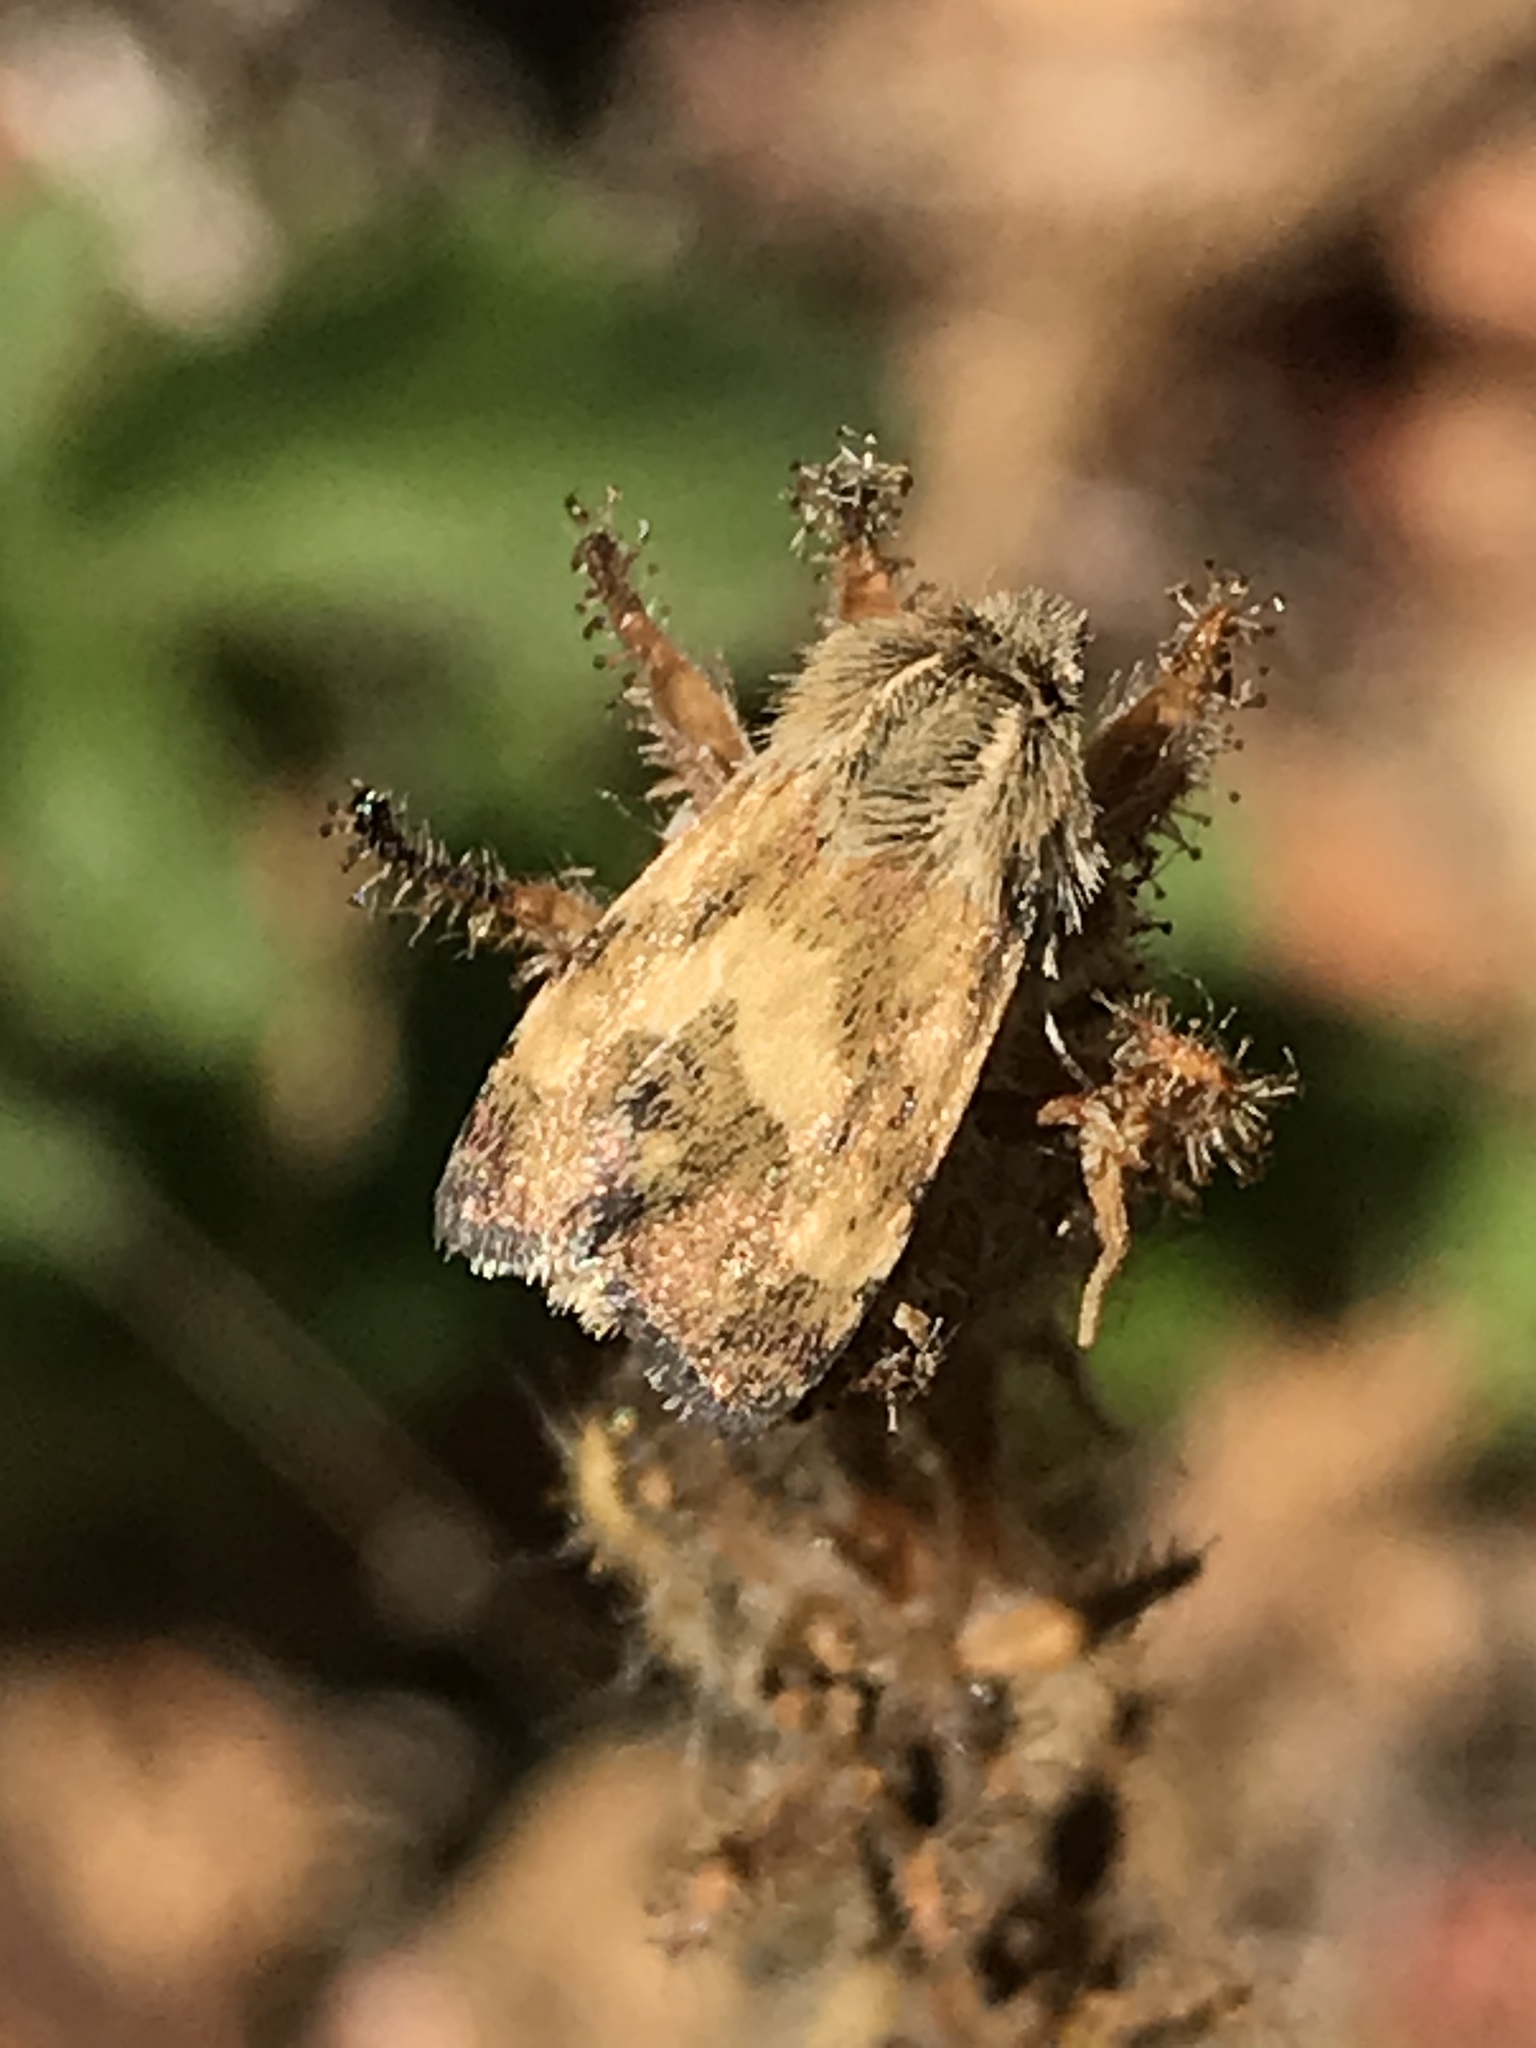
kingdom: Animalia
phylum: Arthropoda
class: Insecta
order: Lepidoptera
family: Noctuidae
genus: Heliothodes
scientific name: Heliothodes diminutiva
